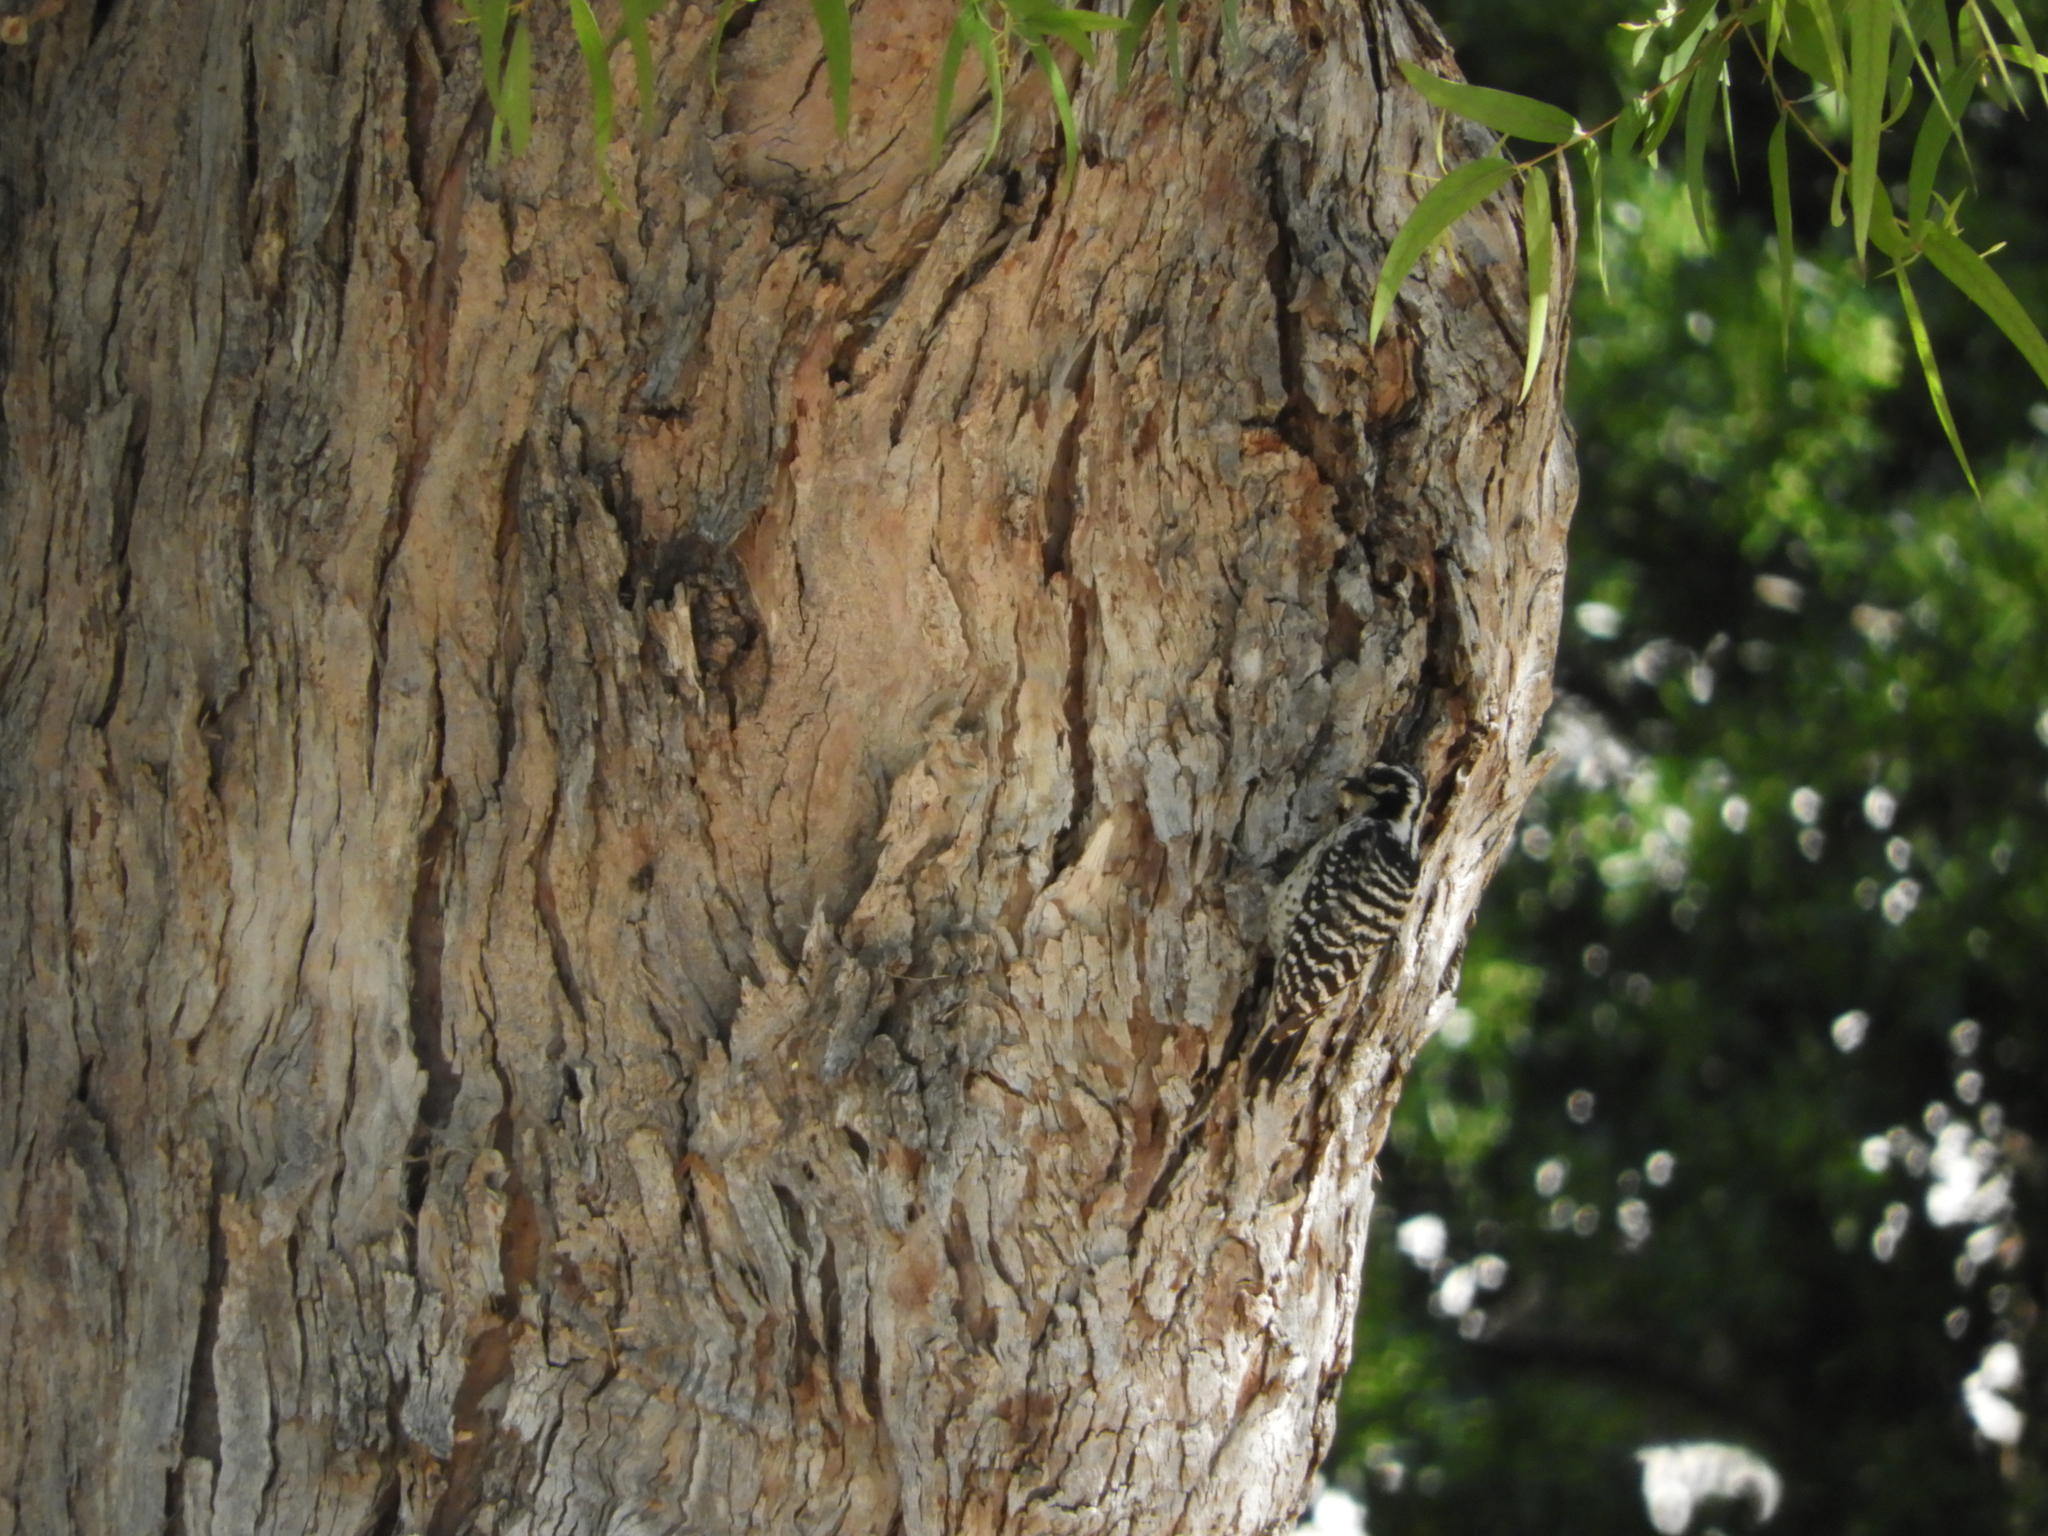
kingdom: Animalia
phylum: Chordata
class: Aves
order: Piciformes
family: Picidae
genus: Dryobates
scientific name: Dryobates nuttallii
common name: Nuttall's woodpecker
